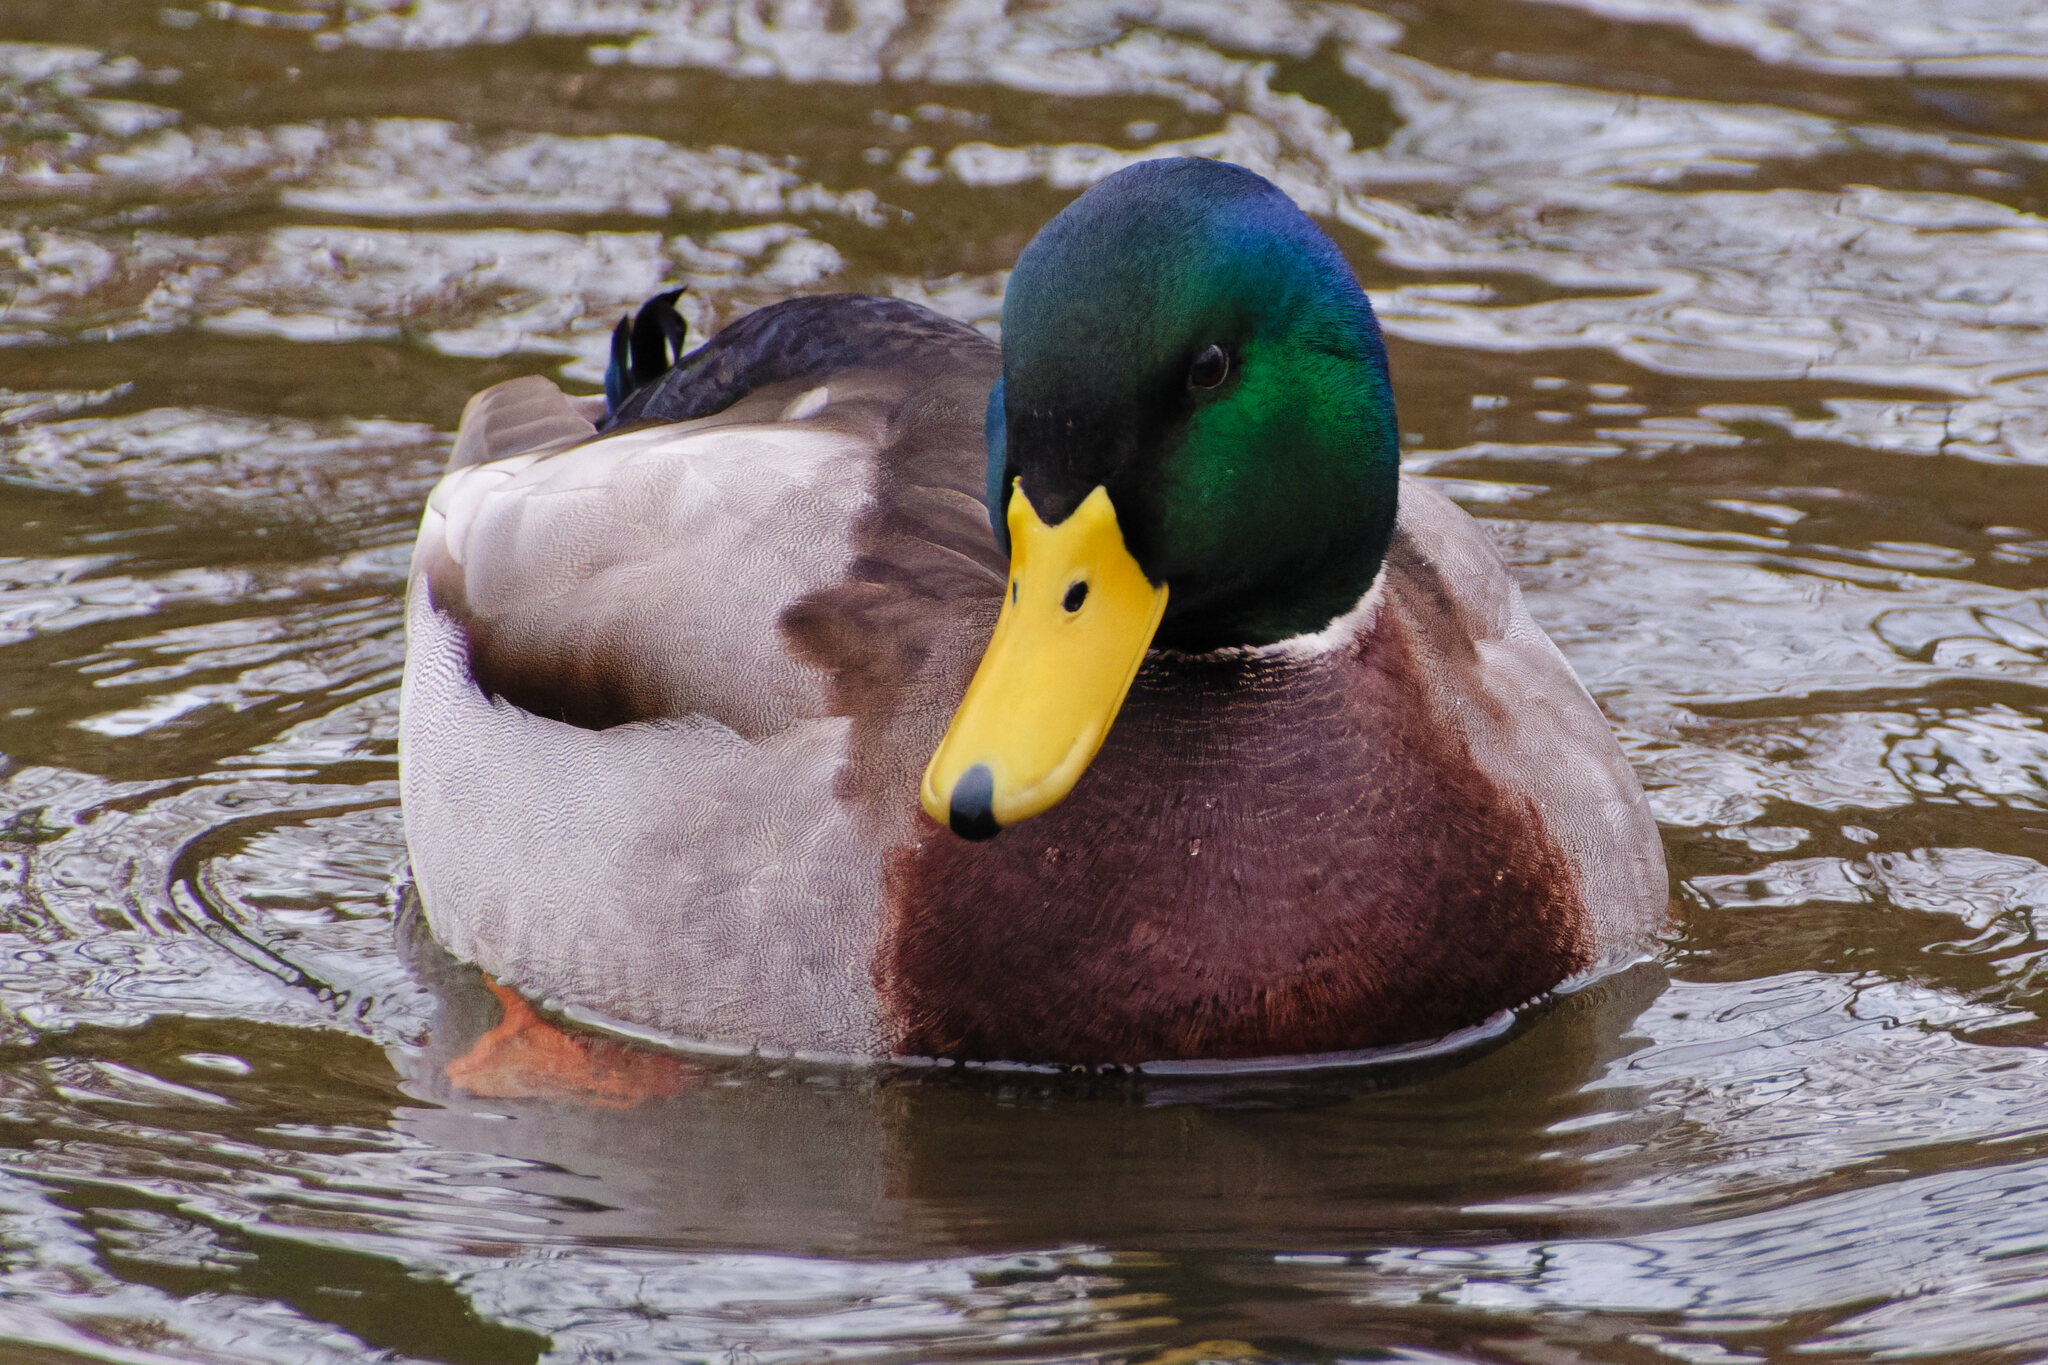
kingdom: Animalia
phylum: Chordata
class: Aves
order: Anseriformes
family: Anatidae
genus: Anas
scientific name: Anas platyrhynchos
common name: Mallard
